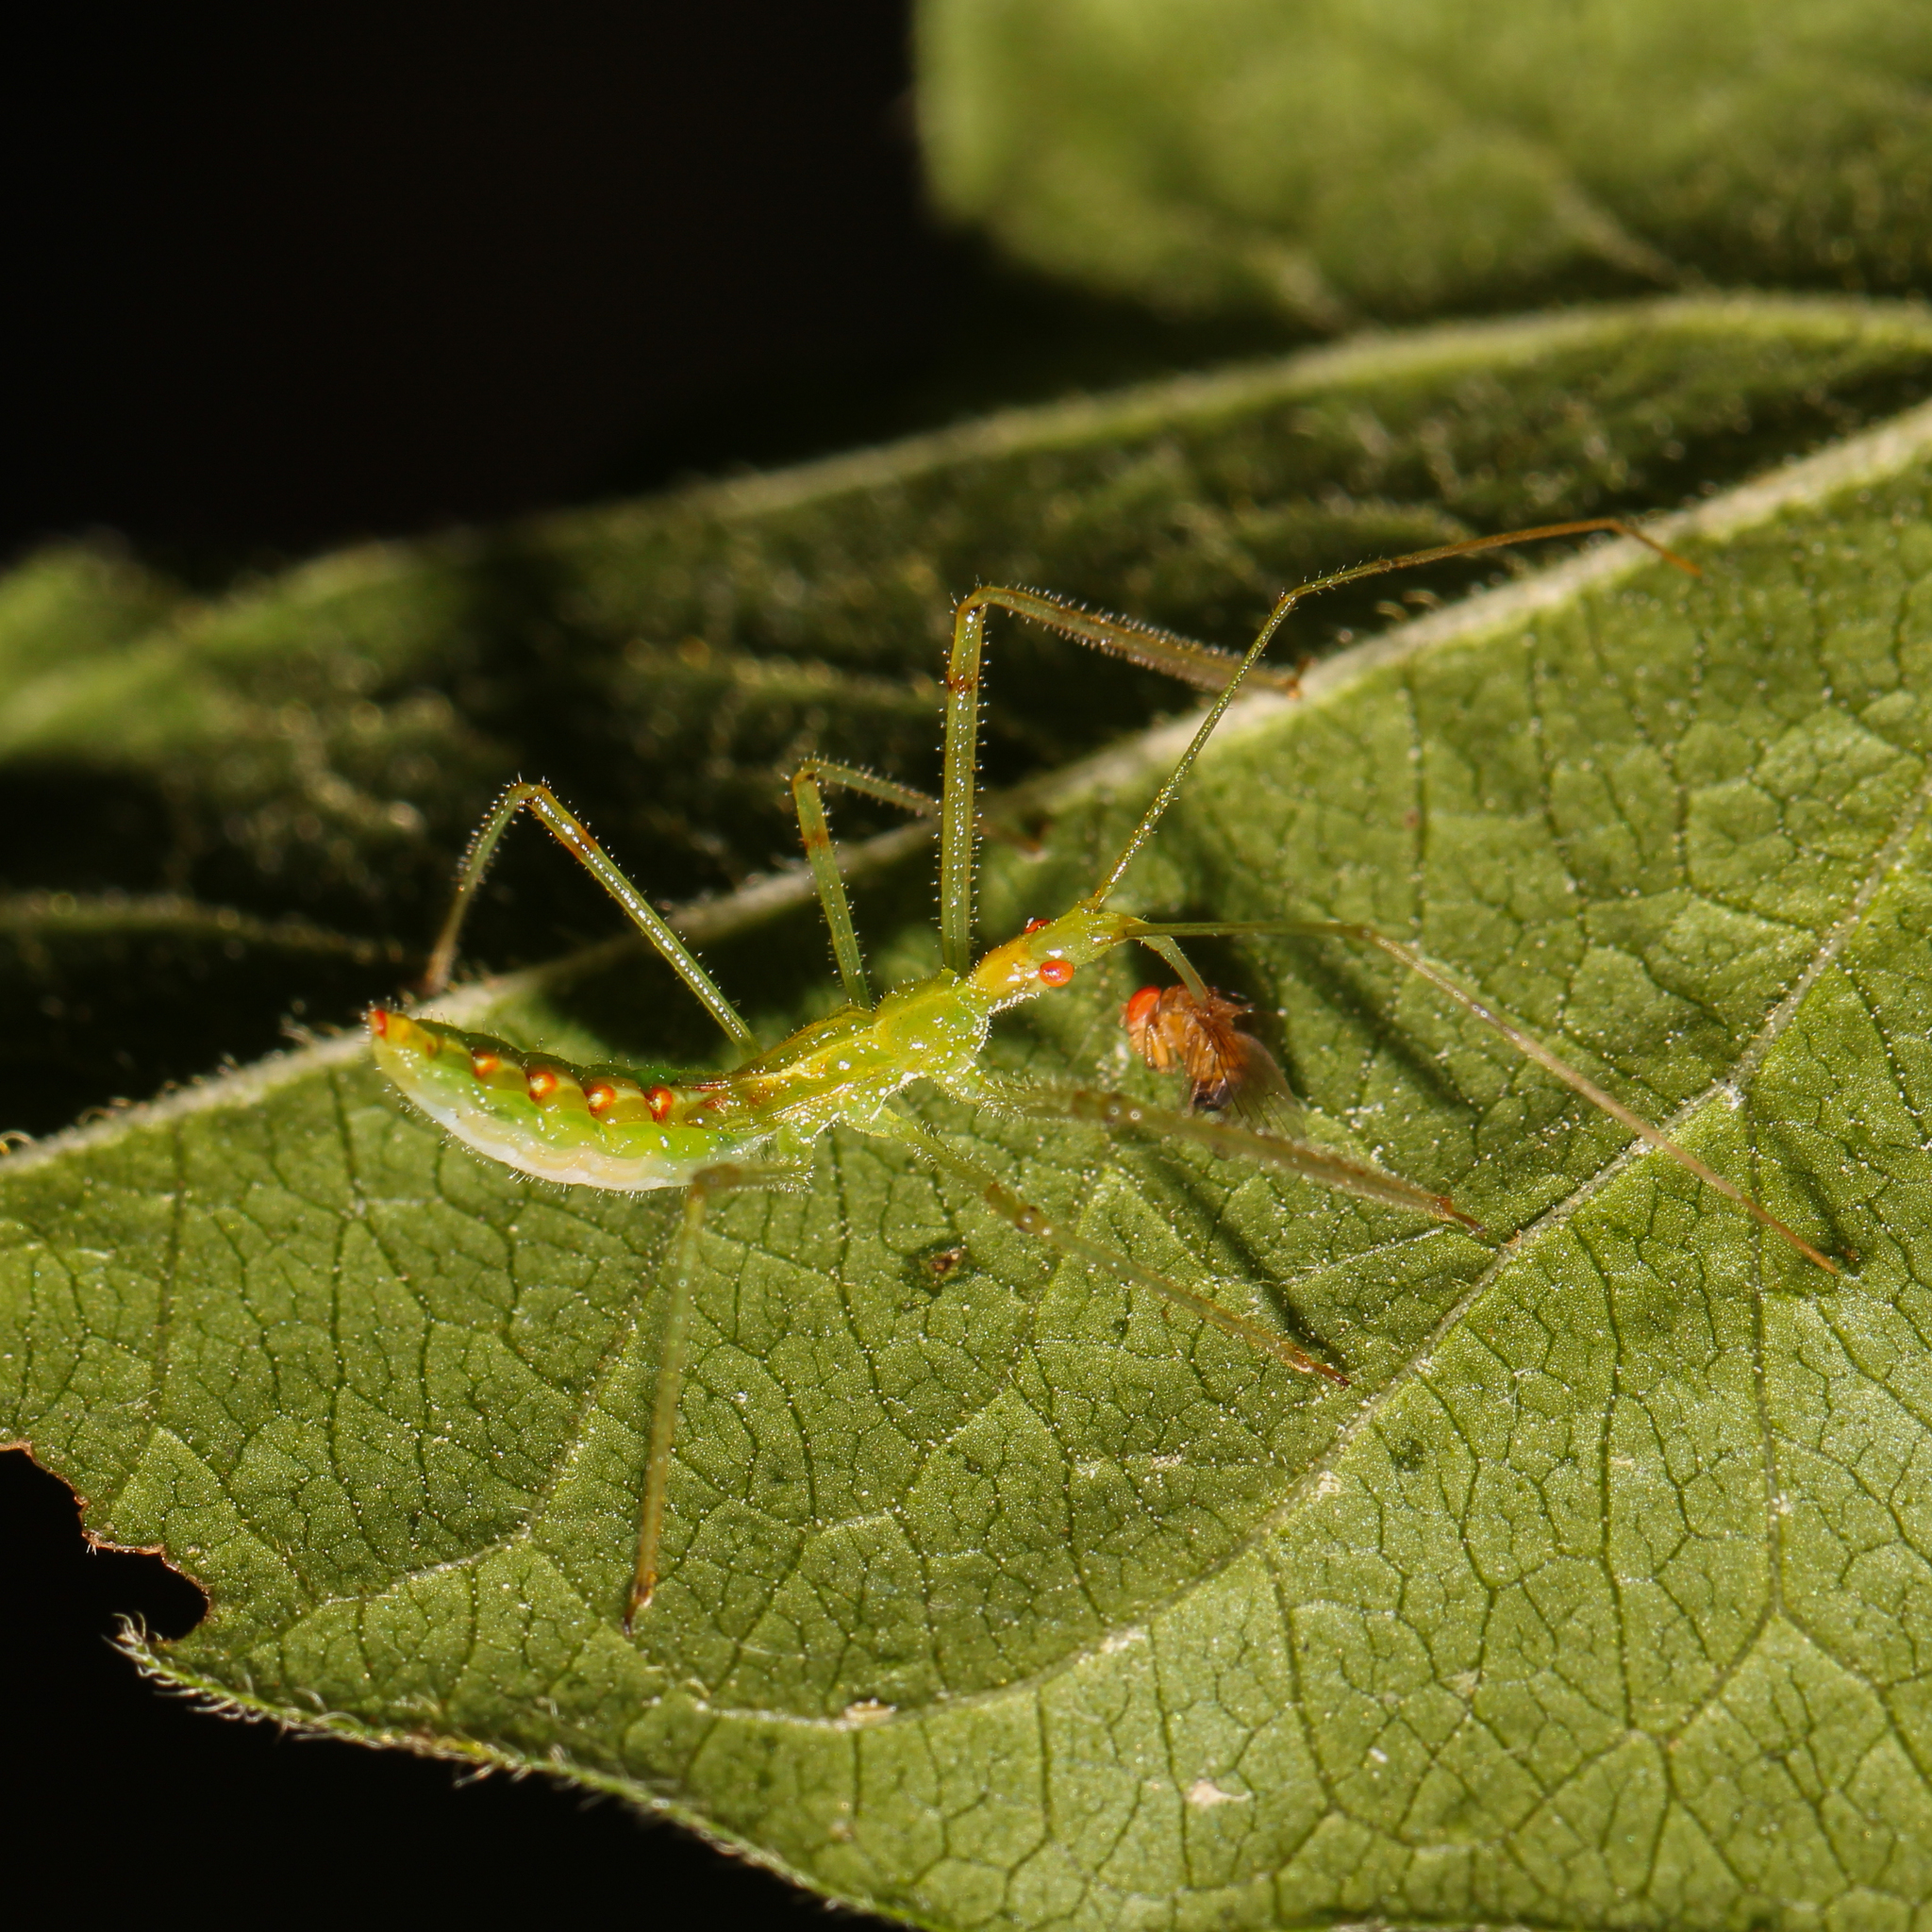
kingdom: Animalia
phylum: Arthropoda
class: Insecta
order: Hemiptera
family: Reduviidae
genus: Zelus
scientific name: Zelus luridus
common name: Pale green assassin bug
